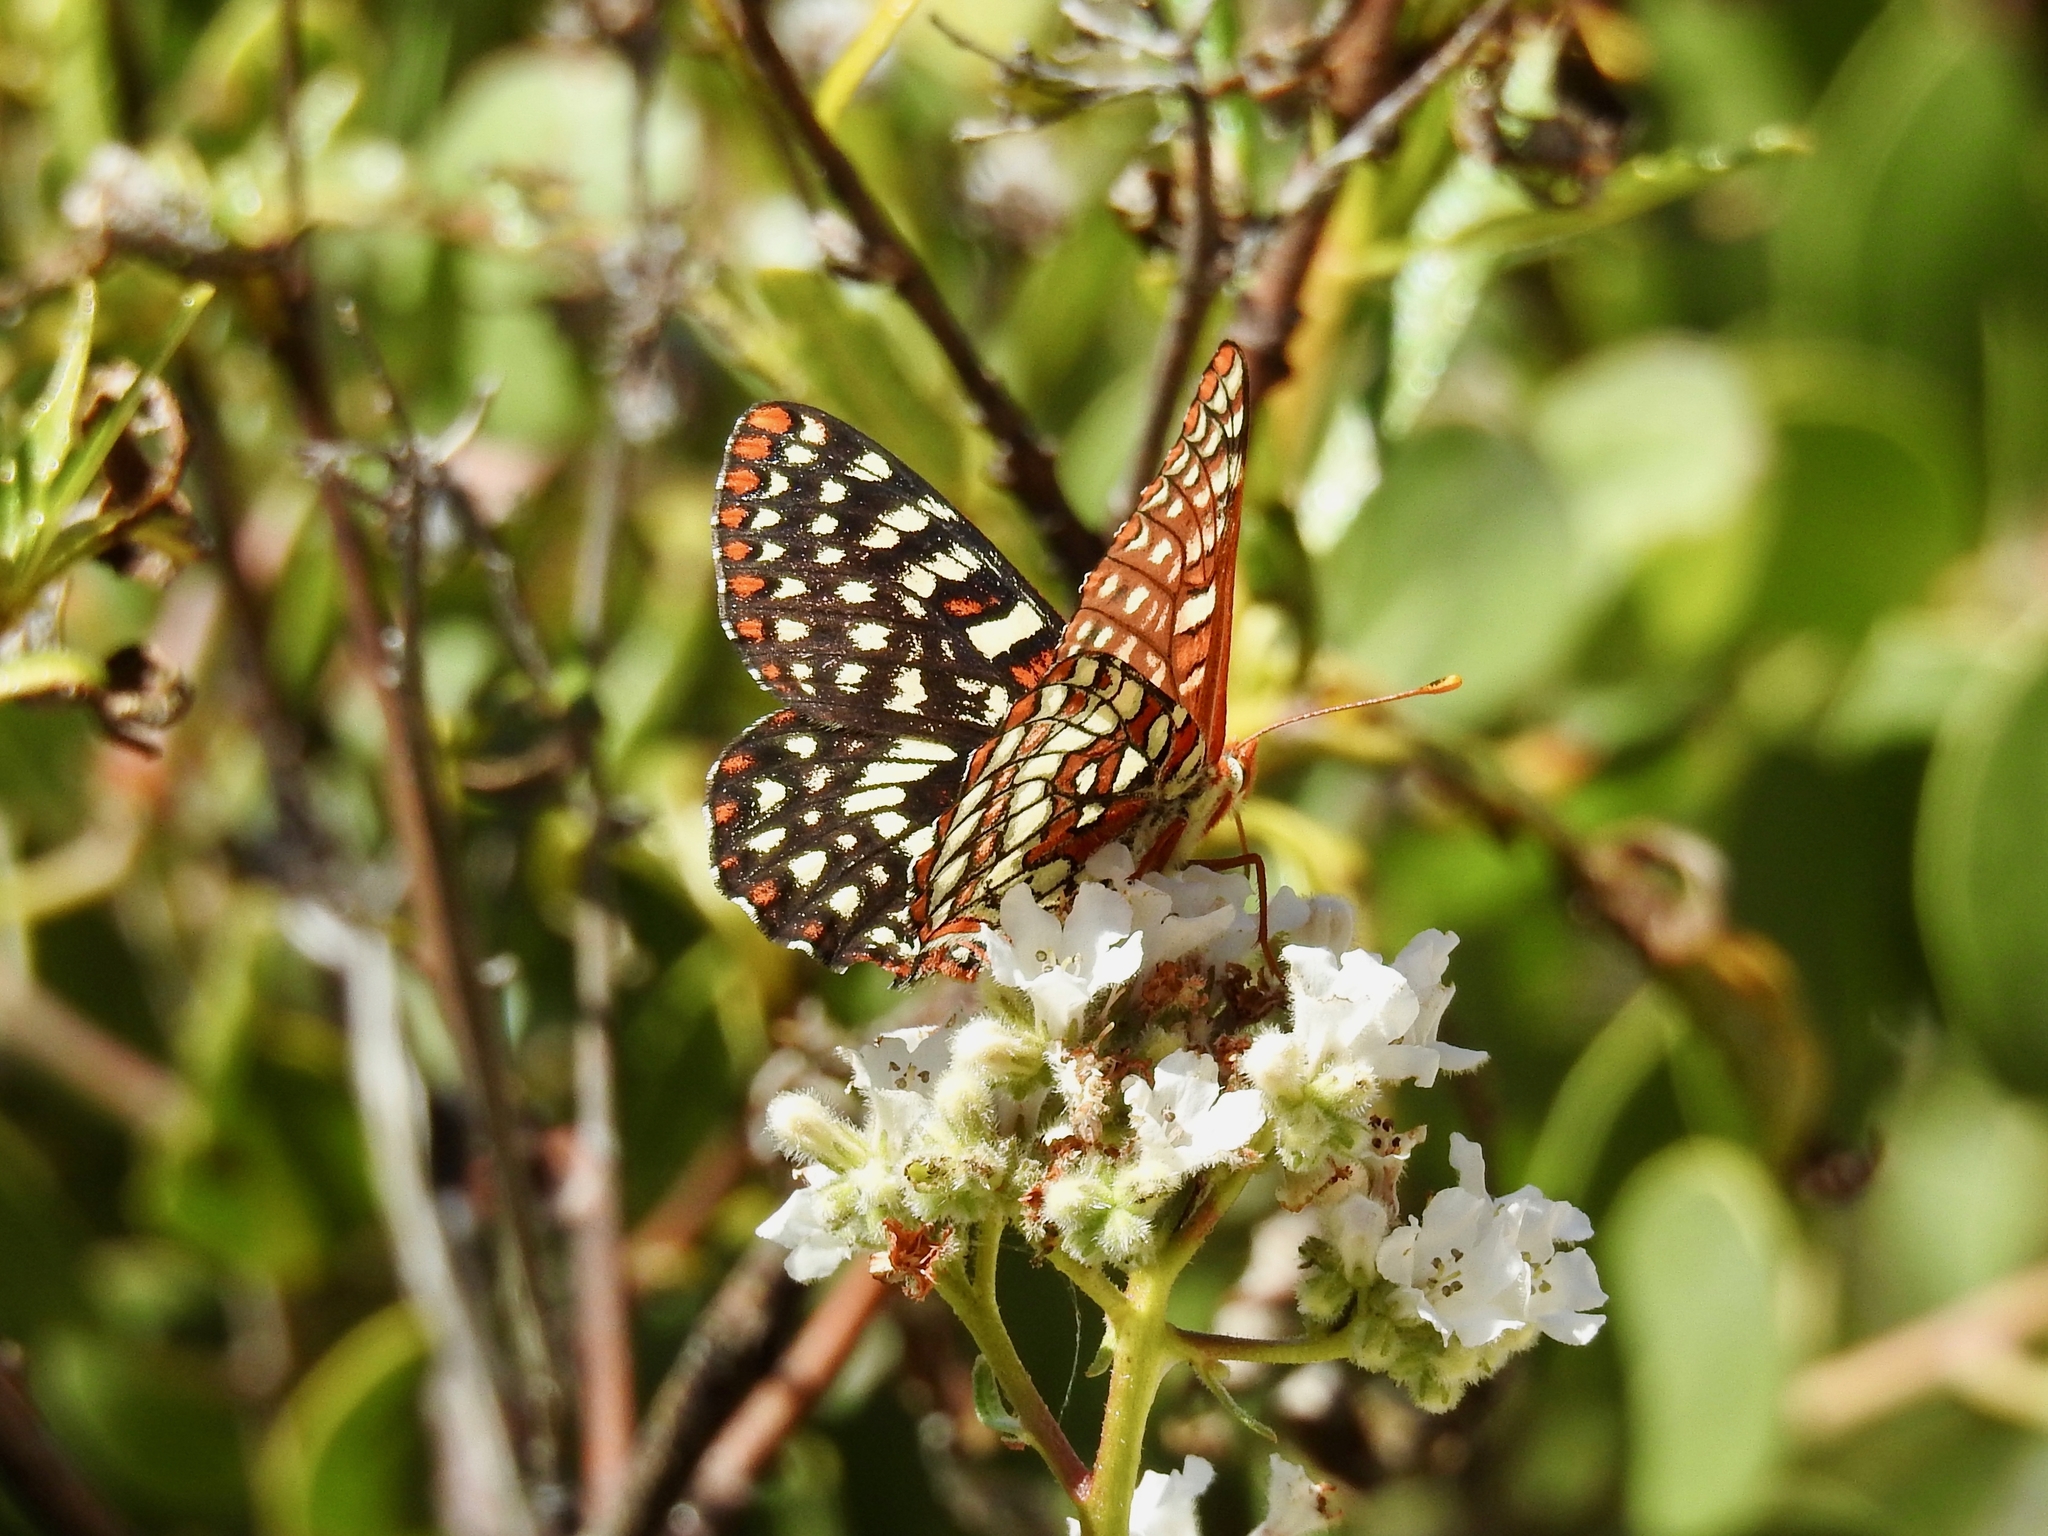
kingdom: Animalia
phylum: Arthropoda
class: Insecta
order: Lepidoptera
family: Nymphalidae
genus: Occidryas
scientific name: Occidryas chalcedona
